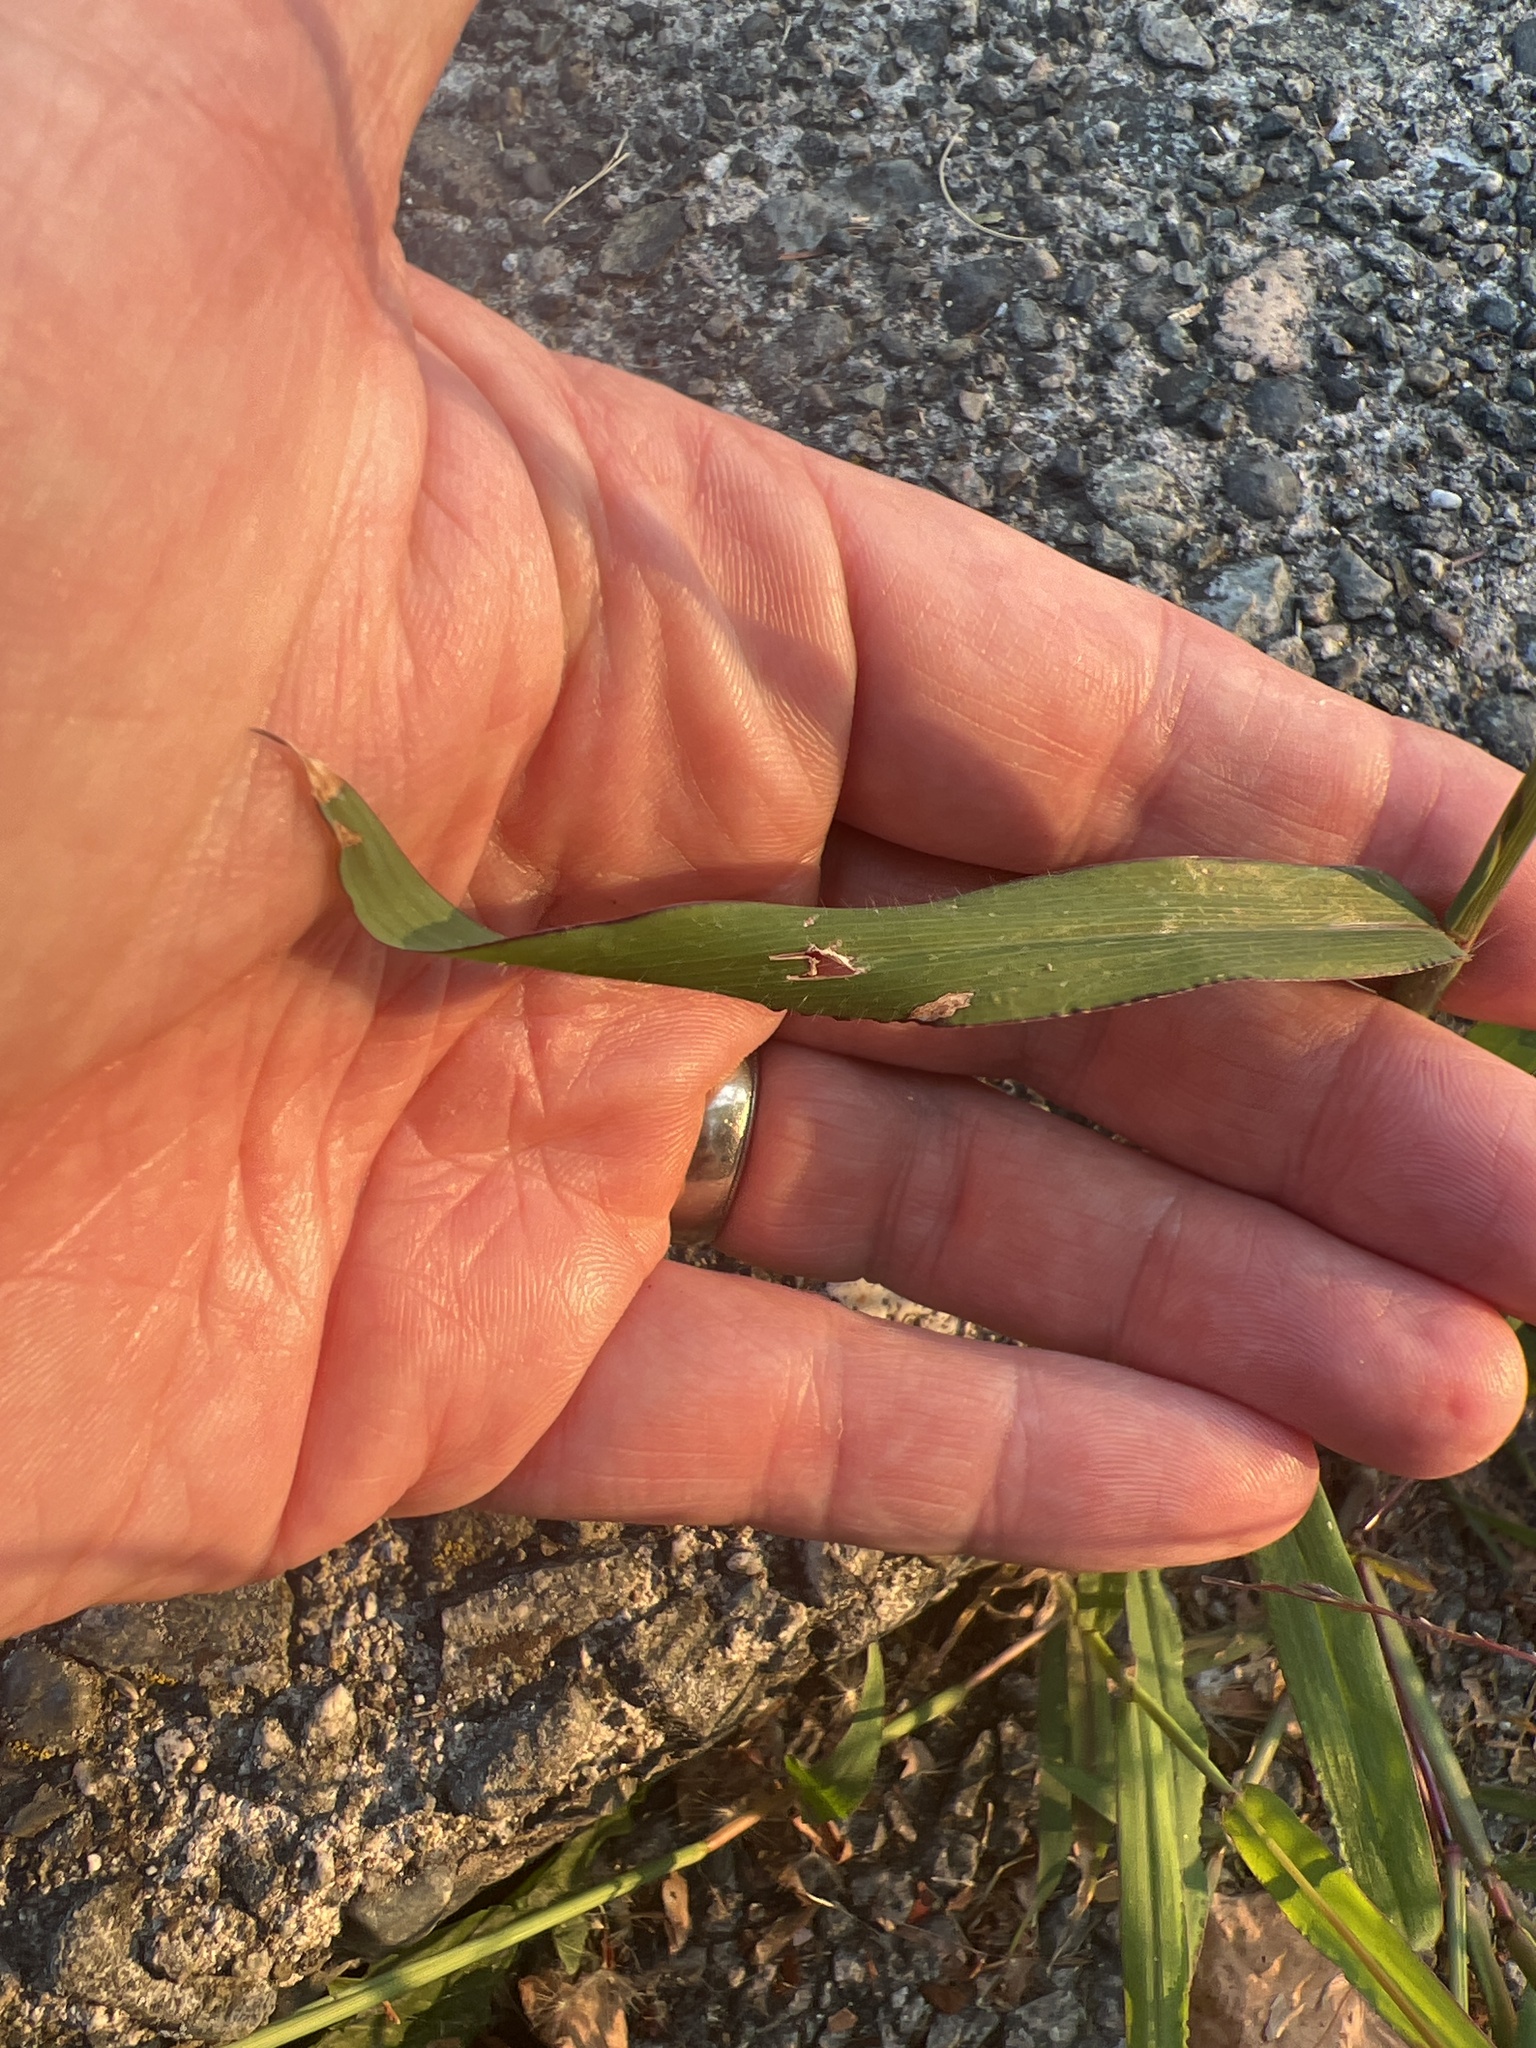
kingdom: Plantae
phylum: Tracheophyta
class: Liliopsida
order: Poales
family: Poaceae
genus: Digitaria
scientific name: Digitaria sanguinalis
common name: Hairy crabgrass
